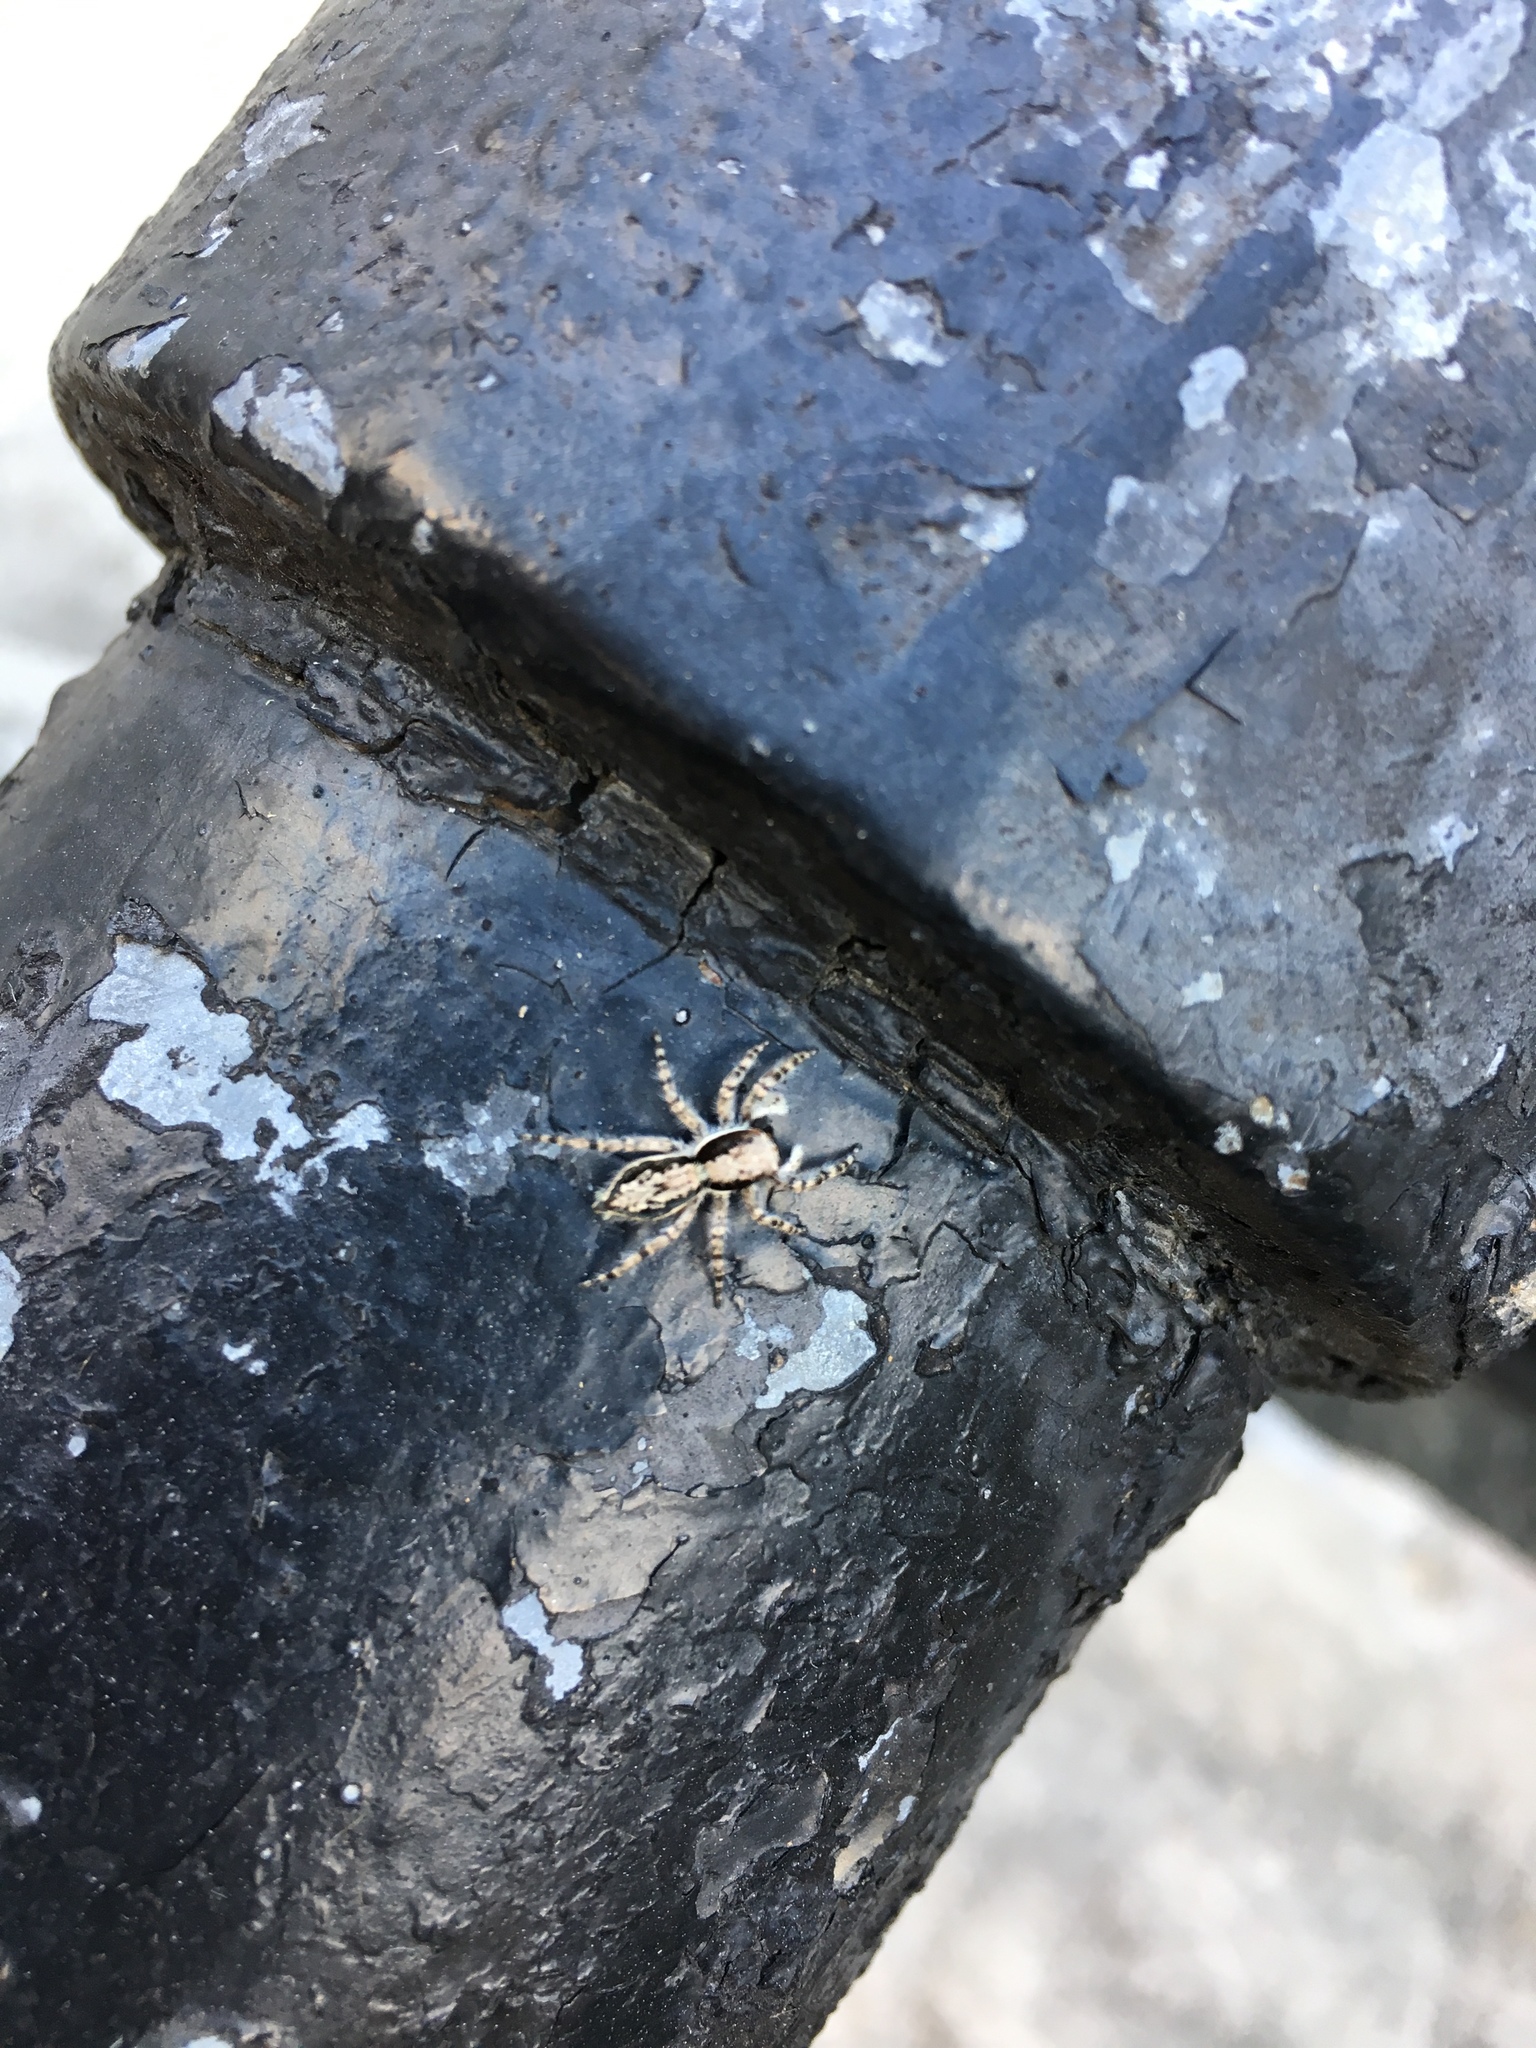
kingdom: Animalia
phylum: Arthropoda
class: Arachnida
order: Araneae
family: Salticidae
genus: Menemerus
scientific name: Menemerus bivittatus
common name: Gray wall jumper
